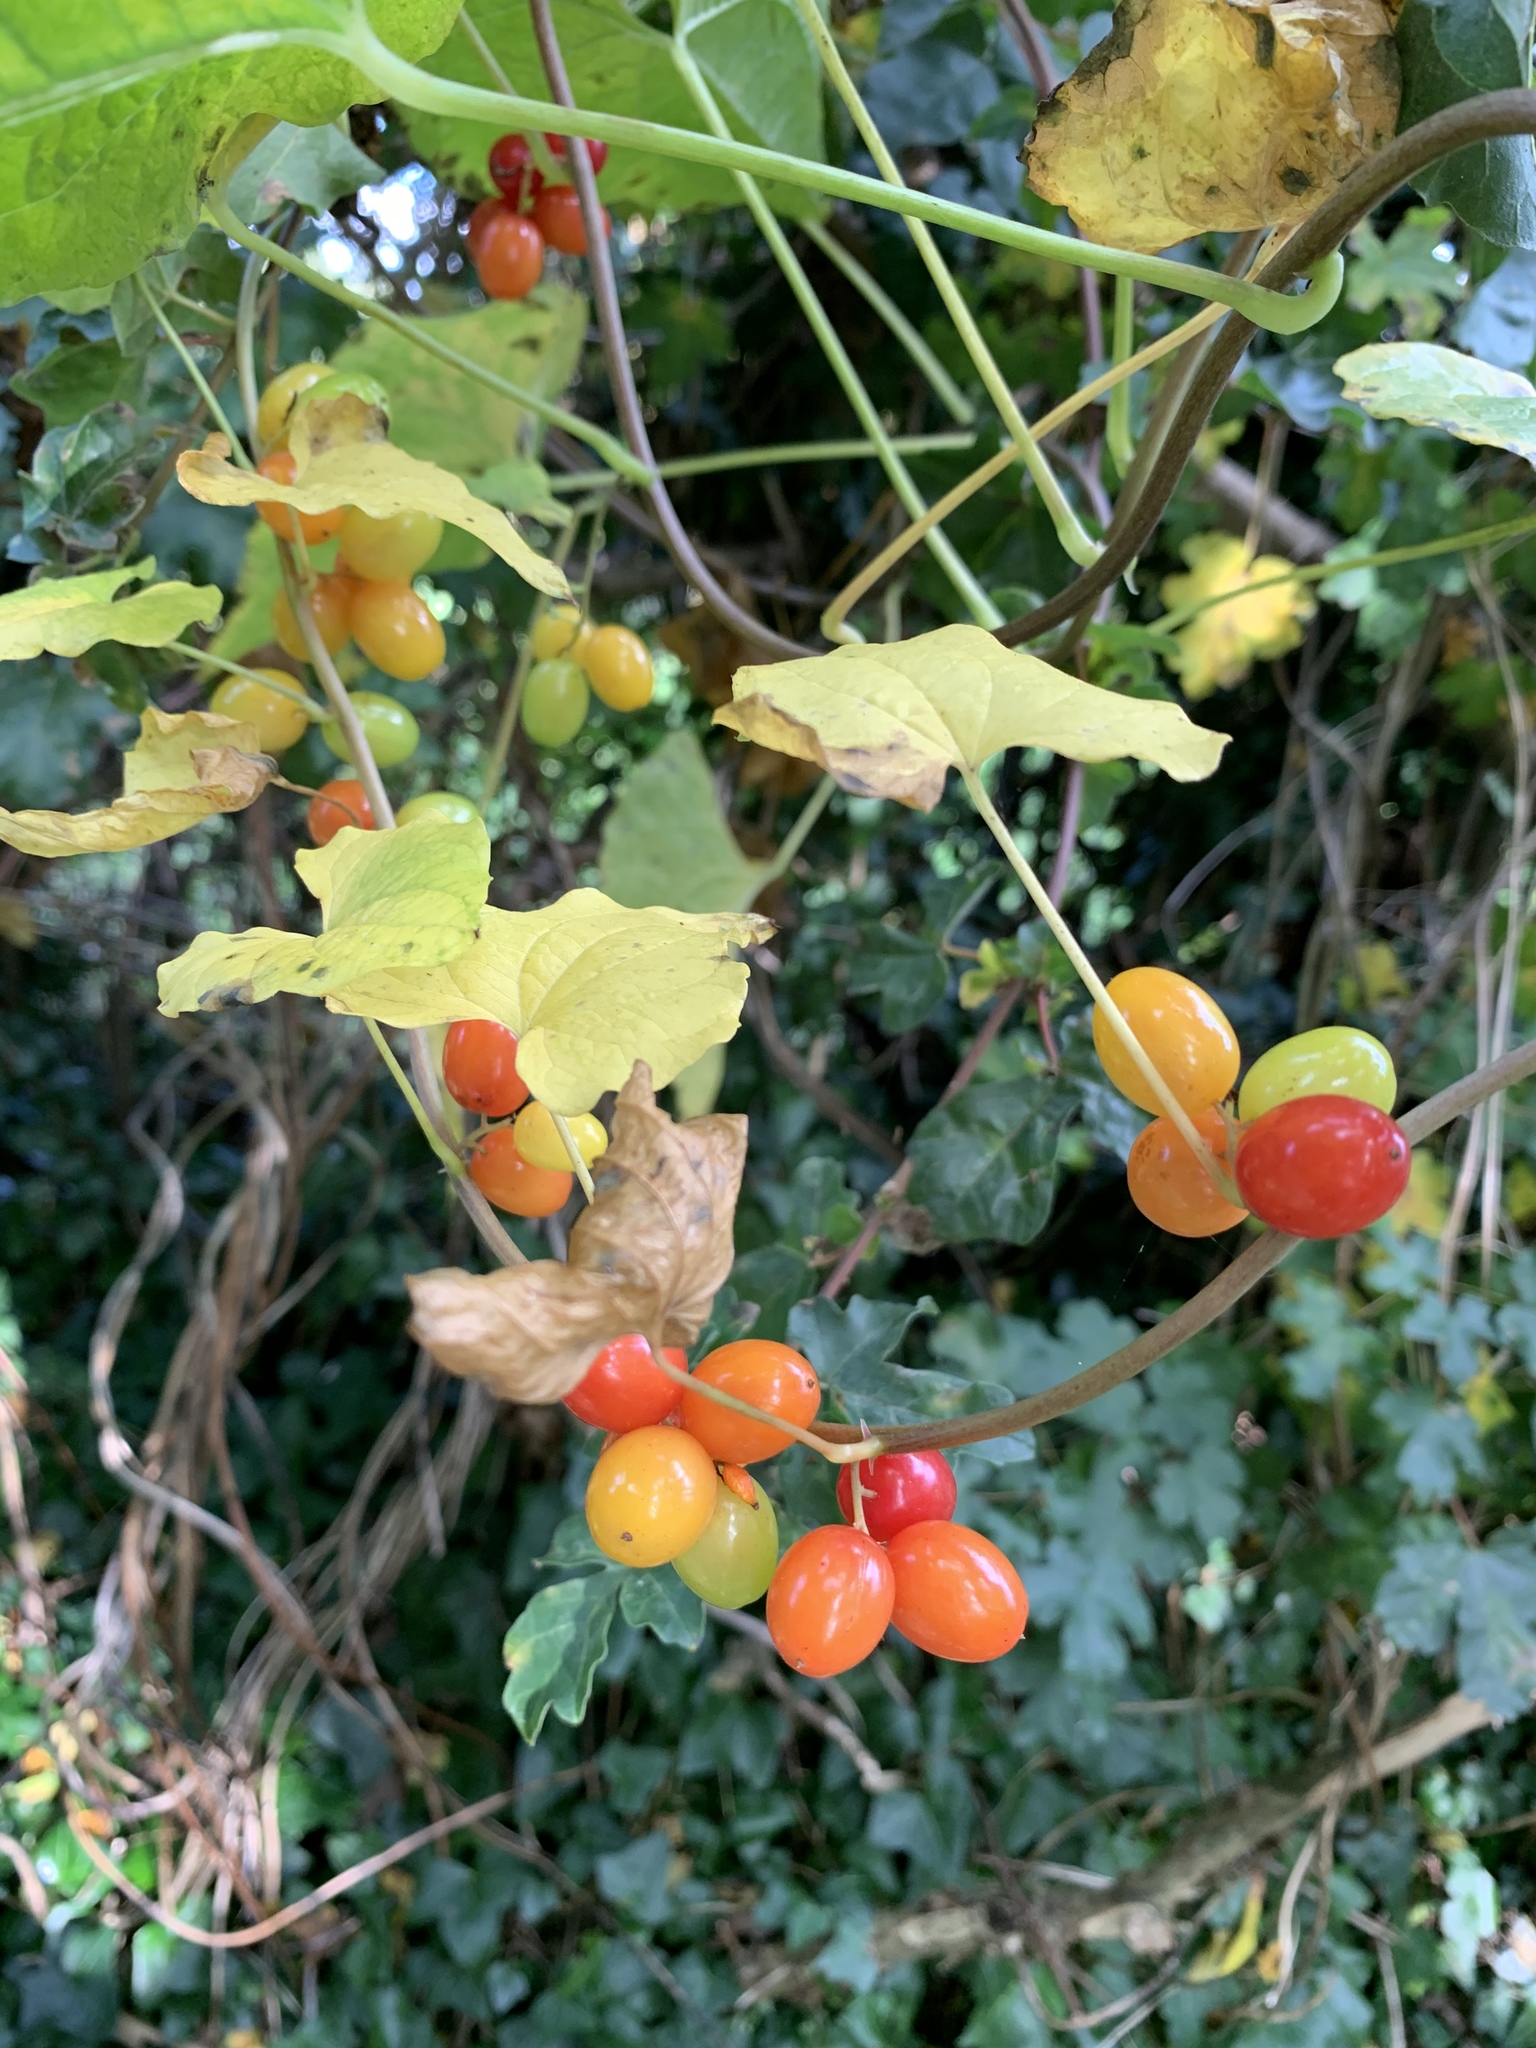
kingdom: Plantae
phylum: Tracheophyta
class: Liliopsida
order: Dioscoreales
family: Dioscoreaceae
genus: Dioscorea
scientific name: Dioscorea communis
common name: Black-bindweed
